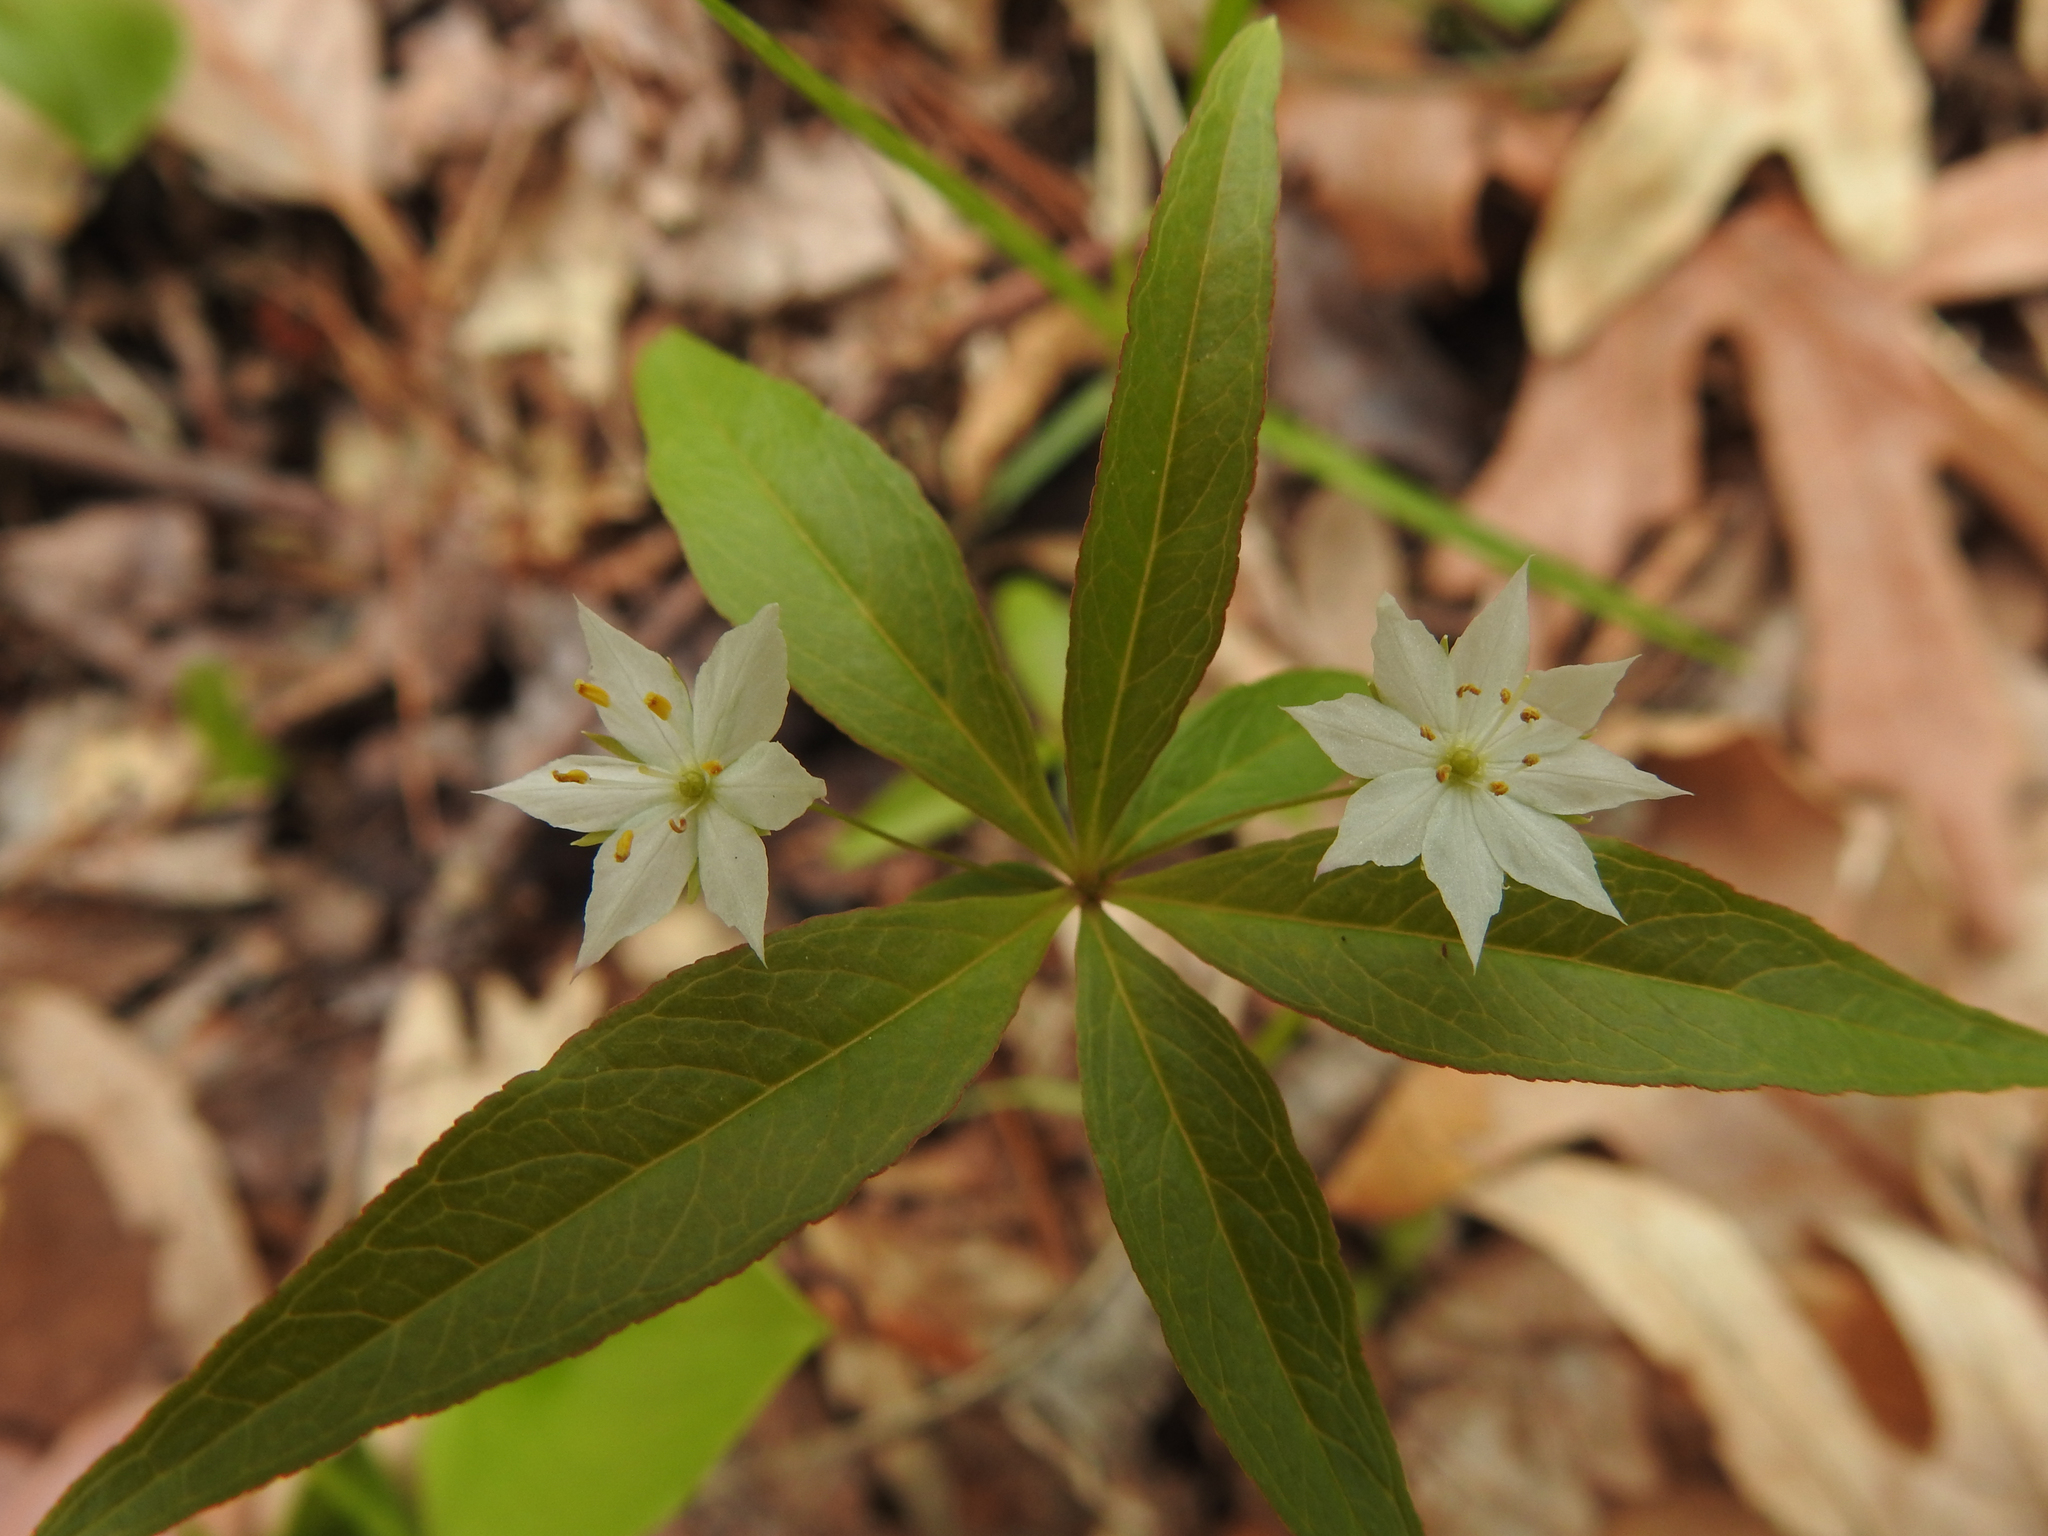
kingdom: Plantae
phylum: Tracheophyta
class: Magnoliopsida
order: Ericales
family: Primulaceae
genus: Lysimachia
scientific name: Lysimachia borealis
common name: American starflower
